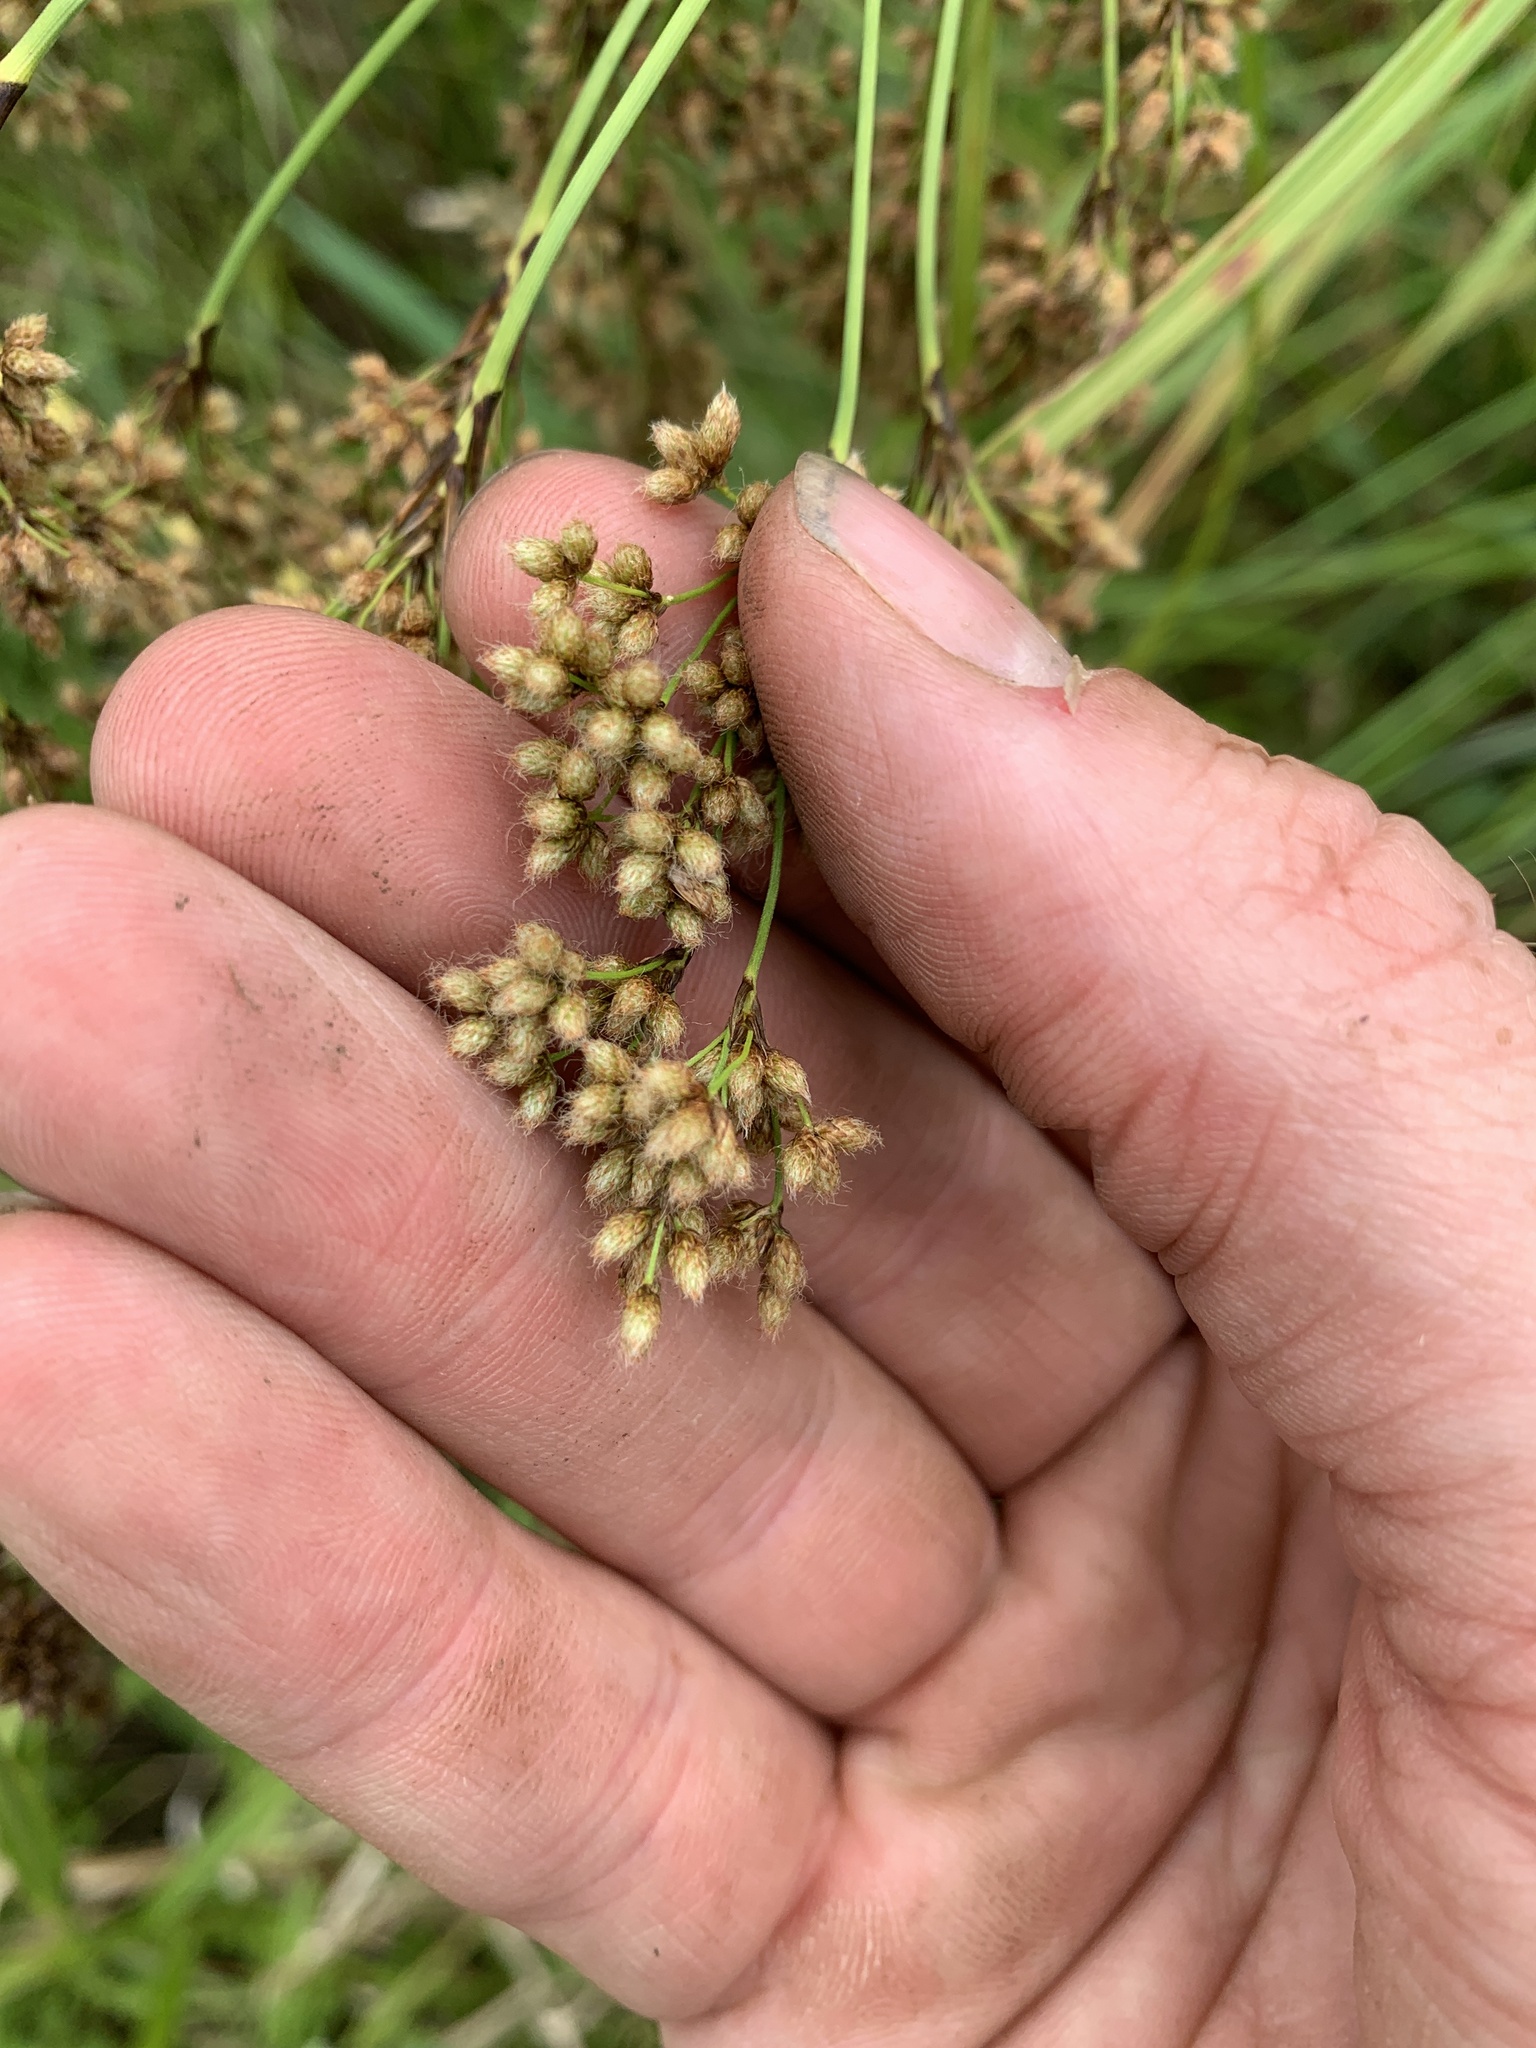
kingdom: Plantae
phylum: Tracheophyta
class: Liliopsida
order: Poales
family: Cyperaceae
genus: Scirpus
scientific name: Scirpus cyperinus
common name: Black-sheathed bulrush
